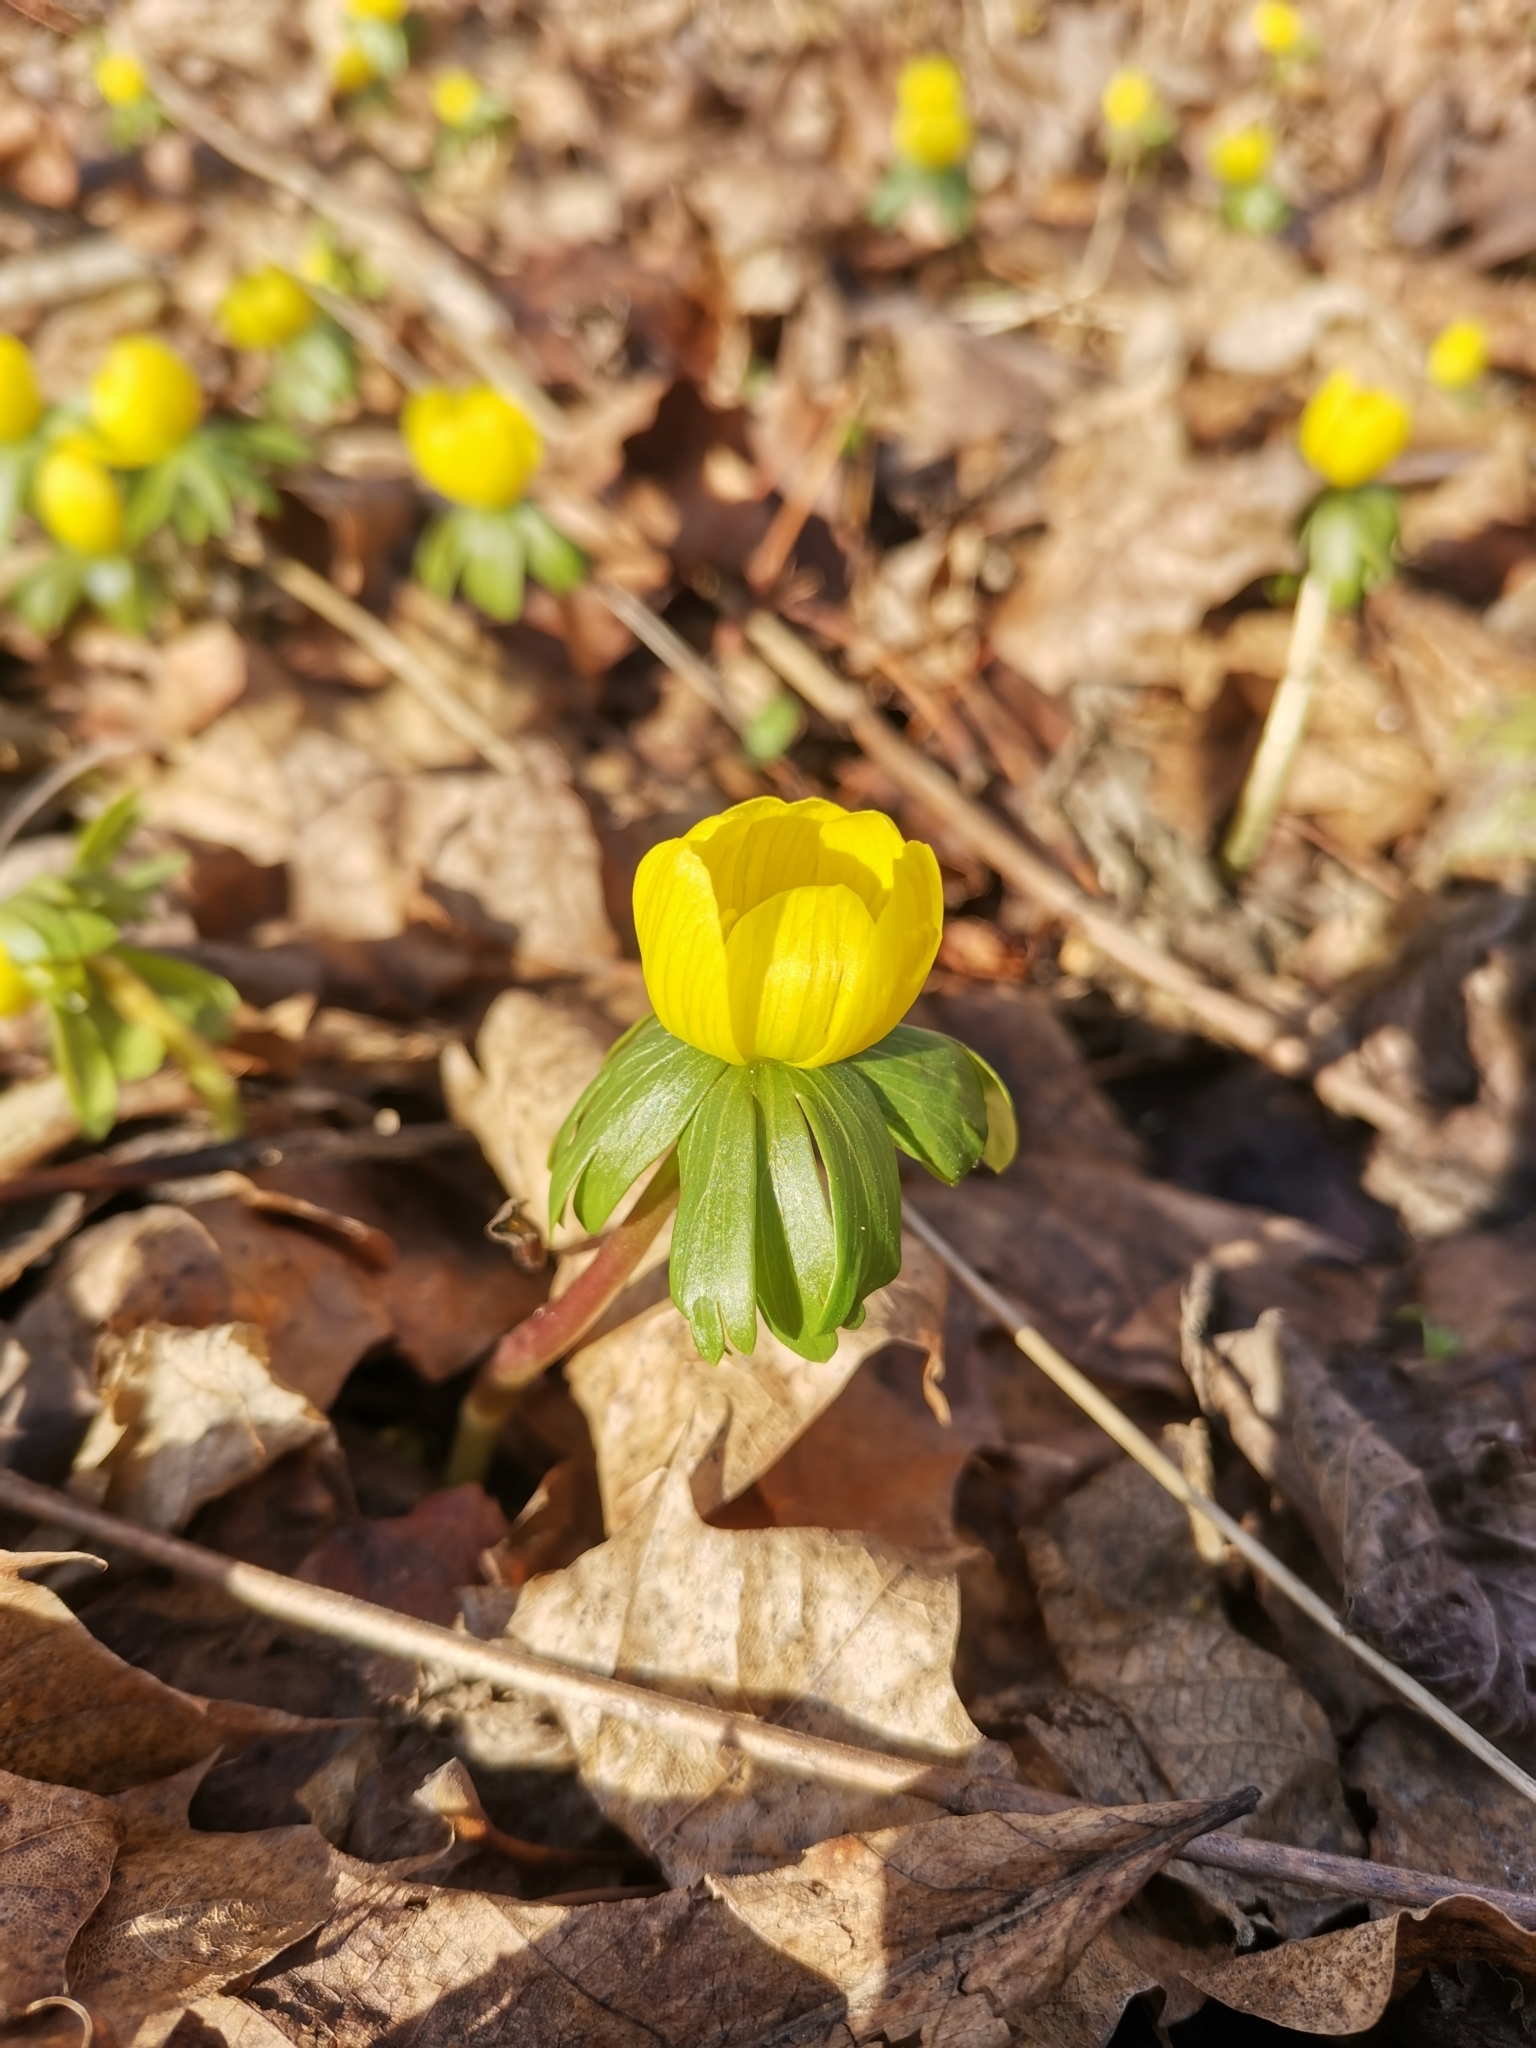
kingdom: Plantae
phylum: Tracheophyta
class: Magnoliopsida
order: Ranunculales
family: Ranunculaceae
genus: Eranthis
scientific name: Eranthis hyemalis
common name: Winter aconite
